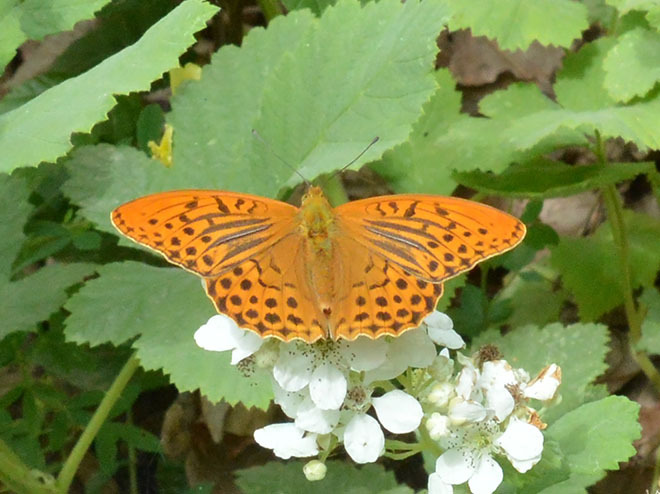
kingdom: Animalia
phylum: Arthropoda
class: Insecta
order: Lepidoptera
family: Nymphalidae
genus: Argynnis
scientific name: Argynnis paphia
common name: Silver-washed fritillary
